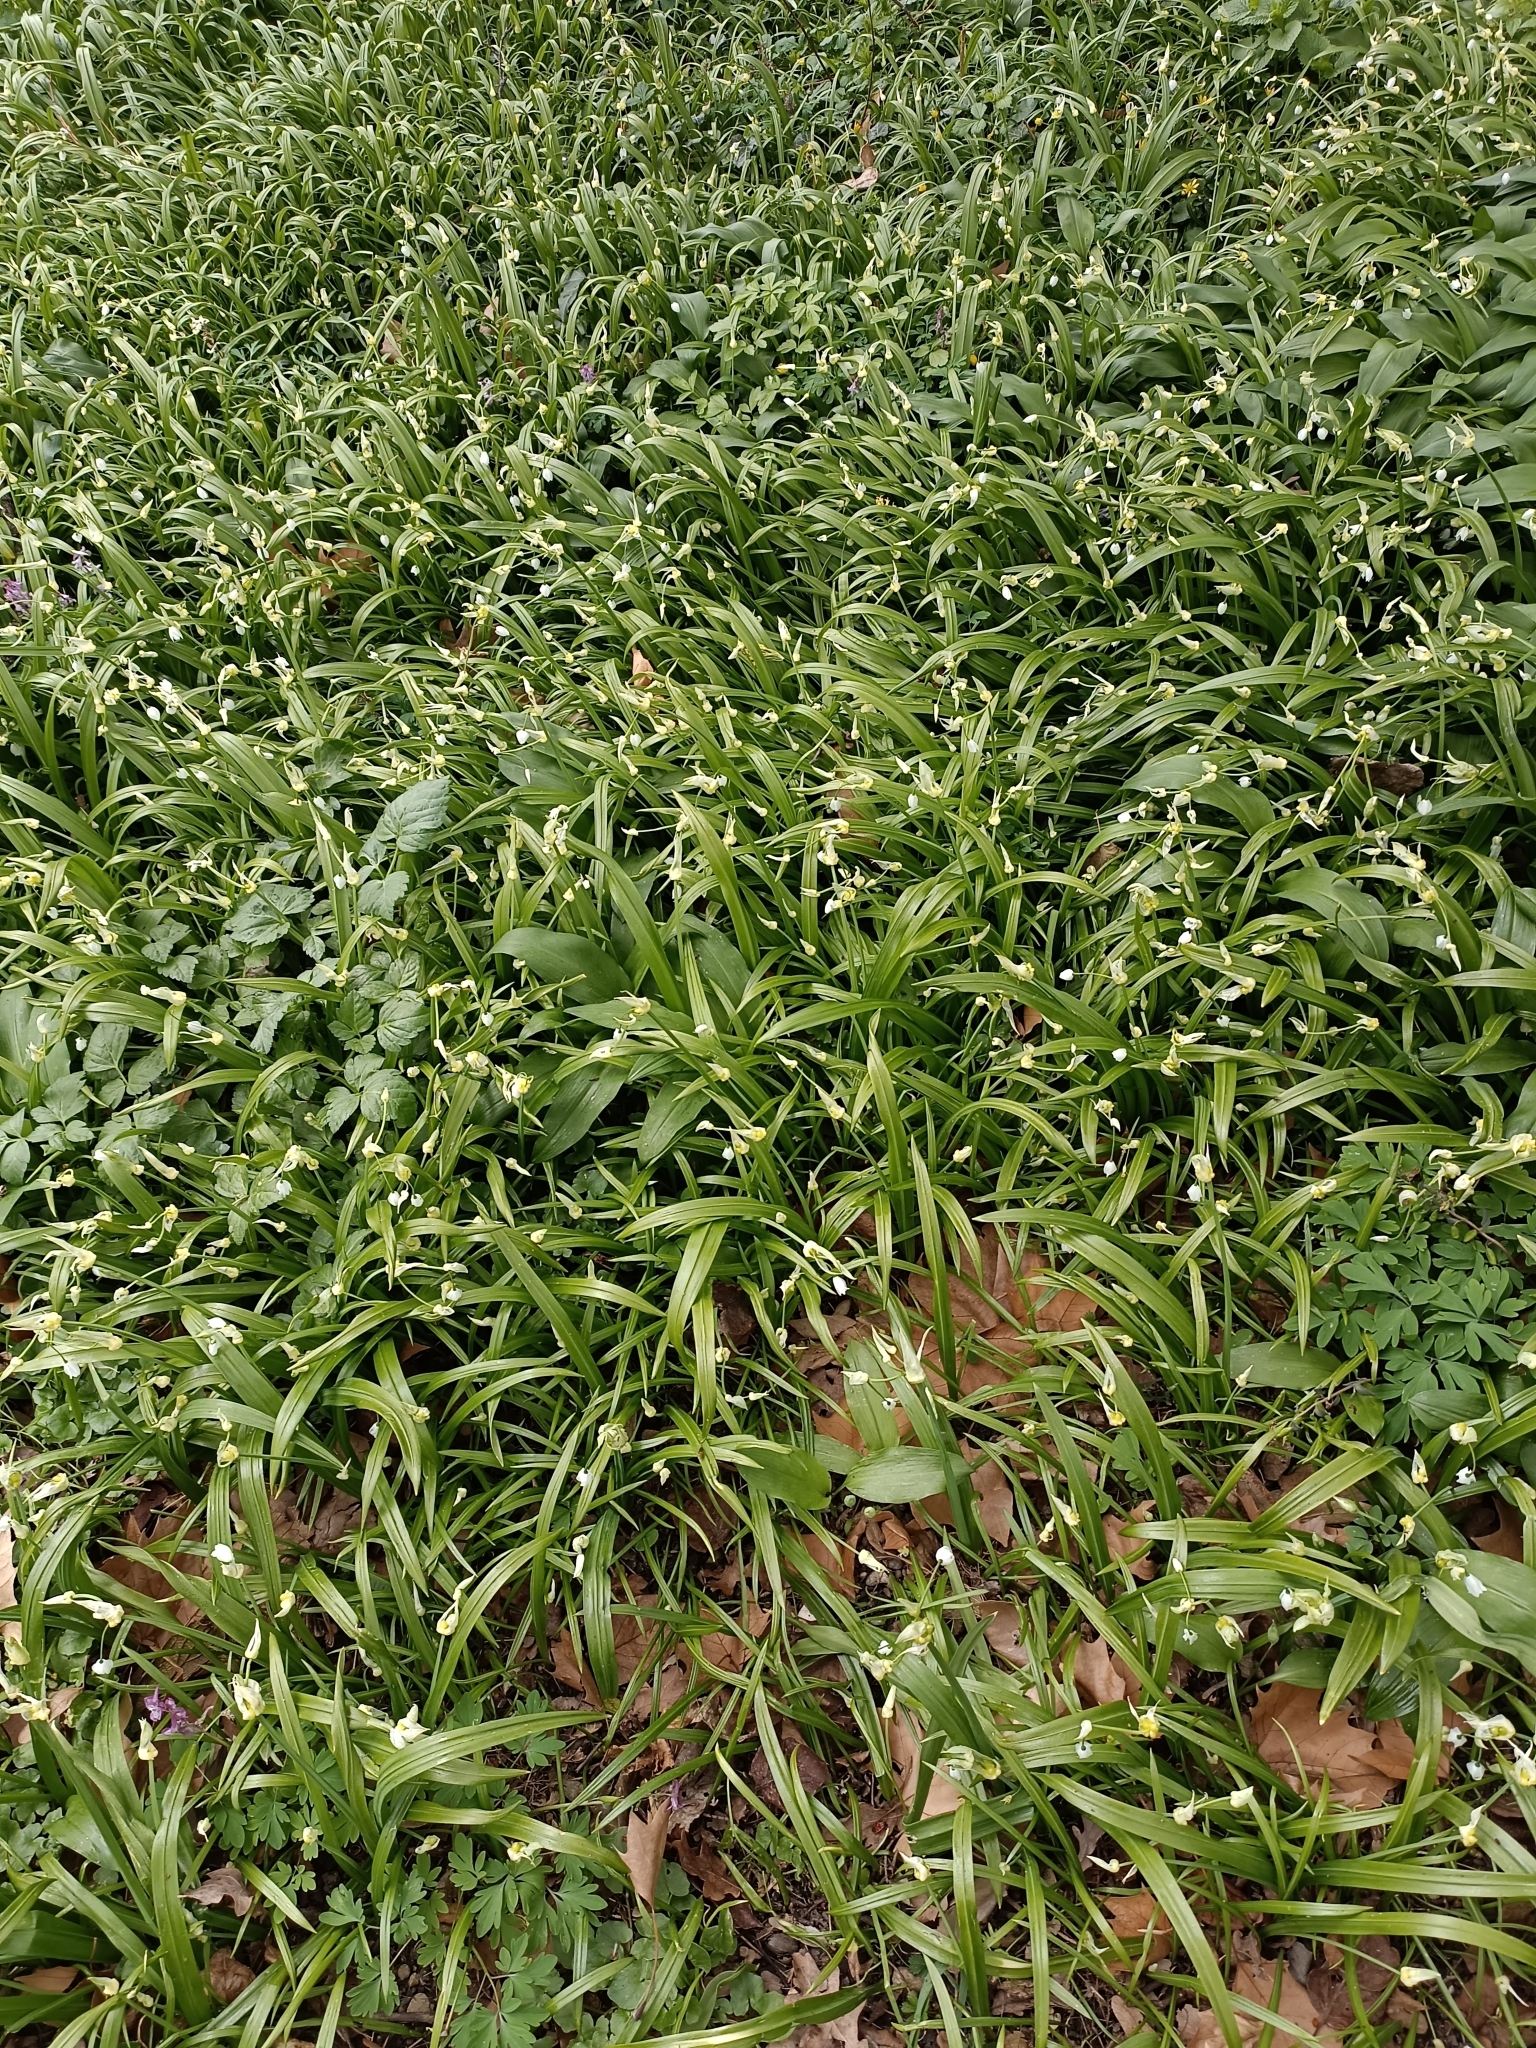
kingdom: Plantae
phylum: Tracheophyta
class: Liliopsida
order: Asparagales
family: Amaryllidaceae
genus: Allium
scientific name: Allium paradoxum
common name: Few-flowered garlic
